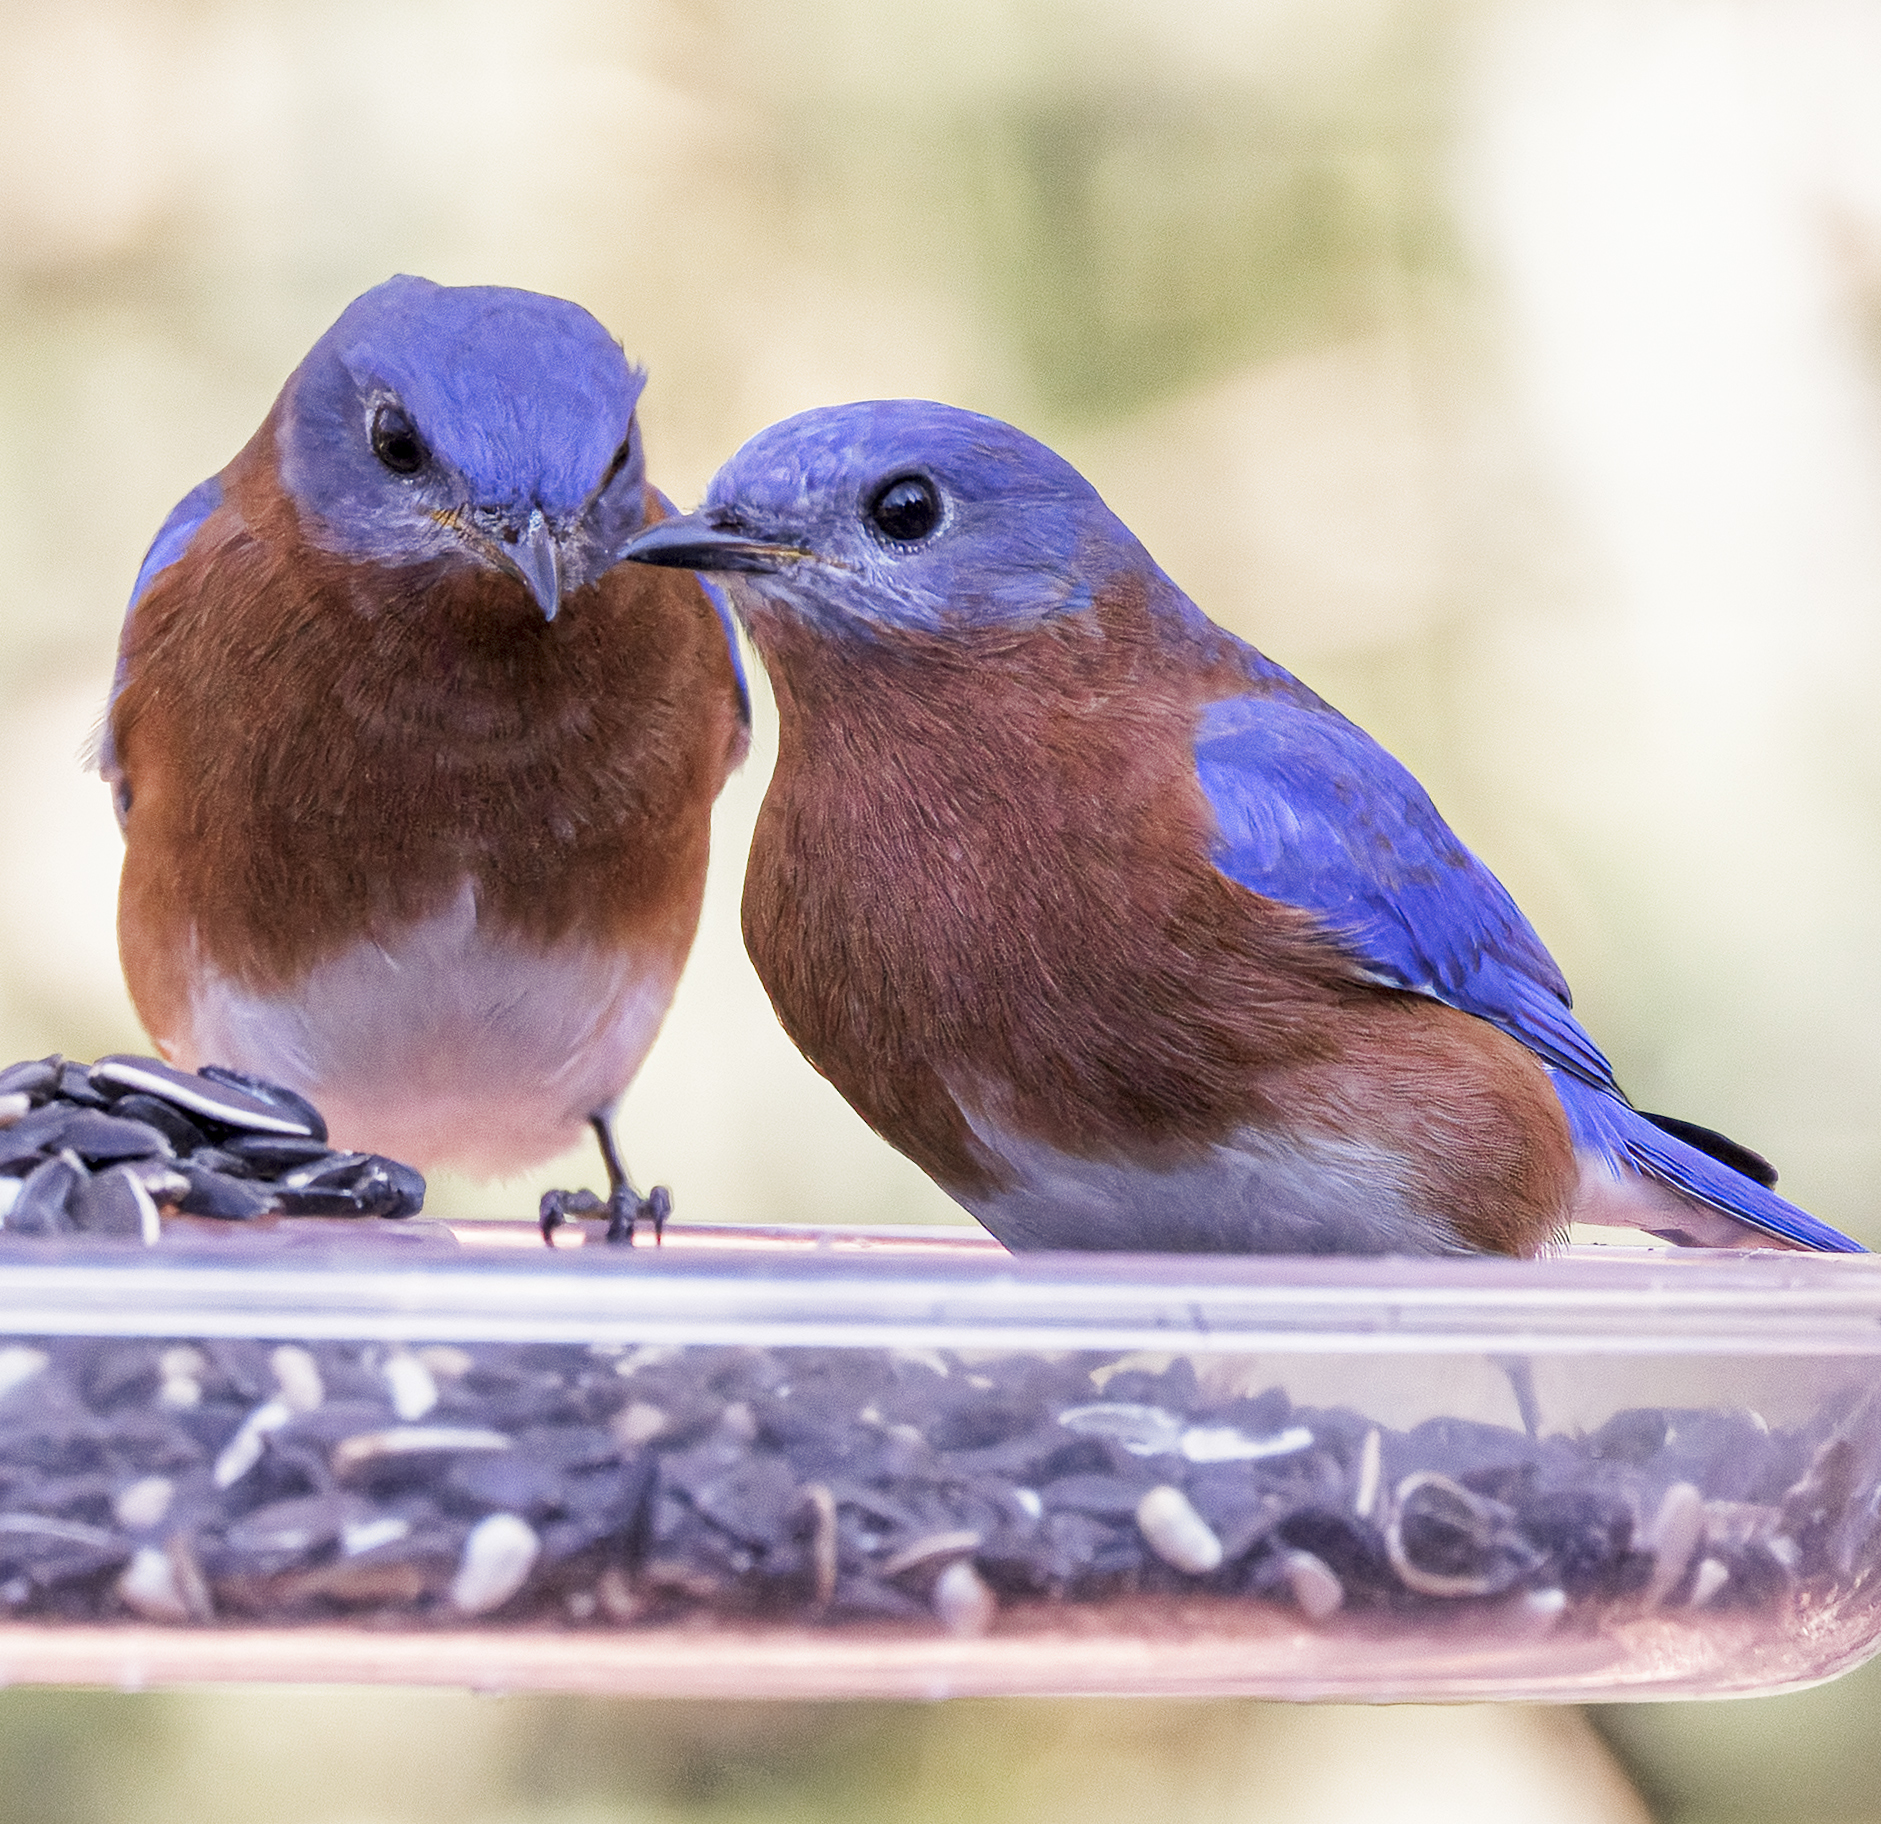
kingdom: Animalia
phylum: Chordata
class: Aves
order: Passeriformes
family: Turdidae
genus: Sialia
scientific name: Sialia sialis
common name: Eastern bluebird
